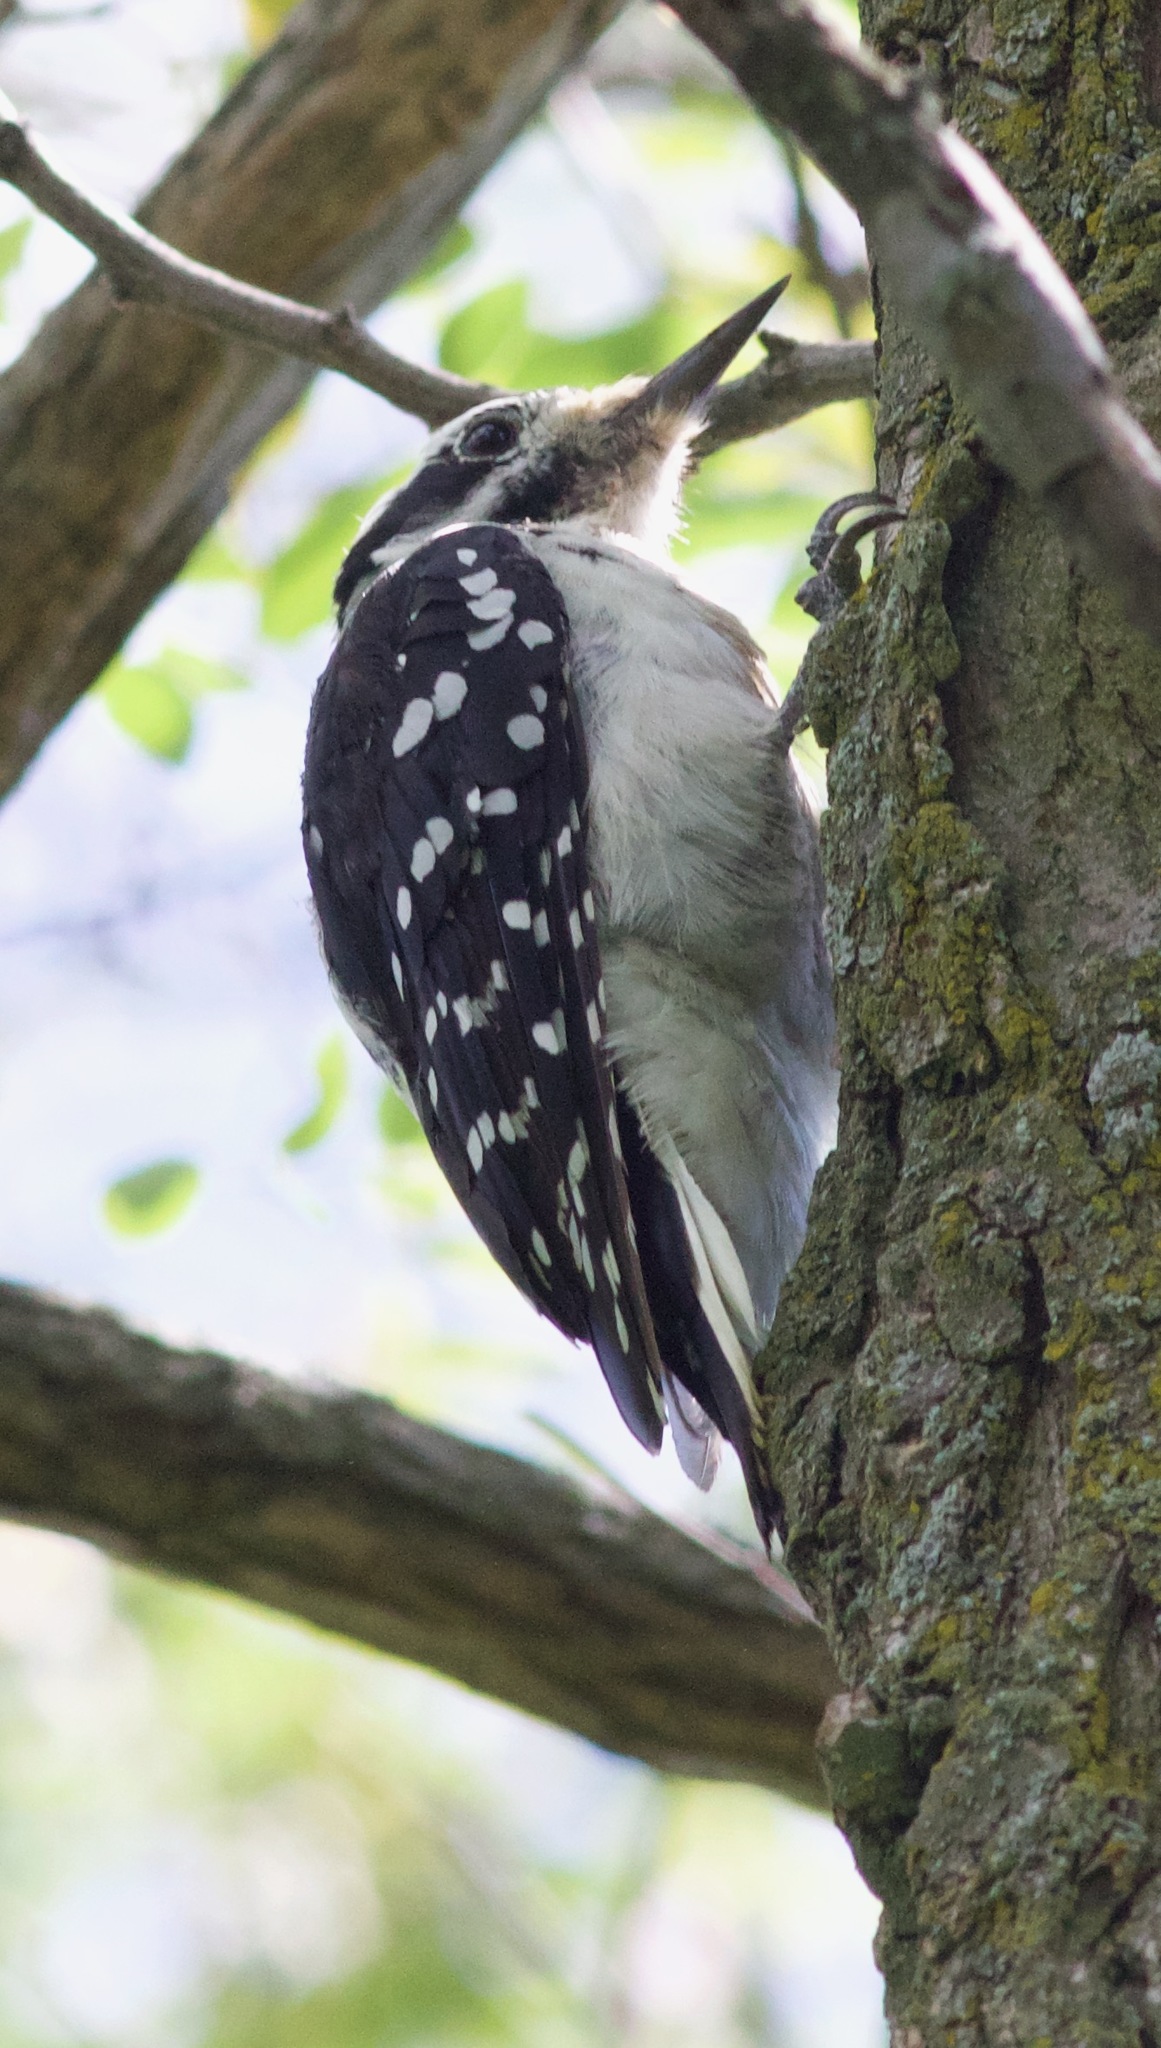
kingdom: Animalia
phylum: Chordata
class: Aves
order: Piciformes
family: Picidae
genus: Leuconotopicus
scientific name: Leuconotopicus villosus
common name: Hairy woodpecker
